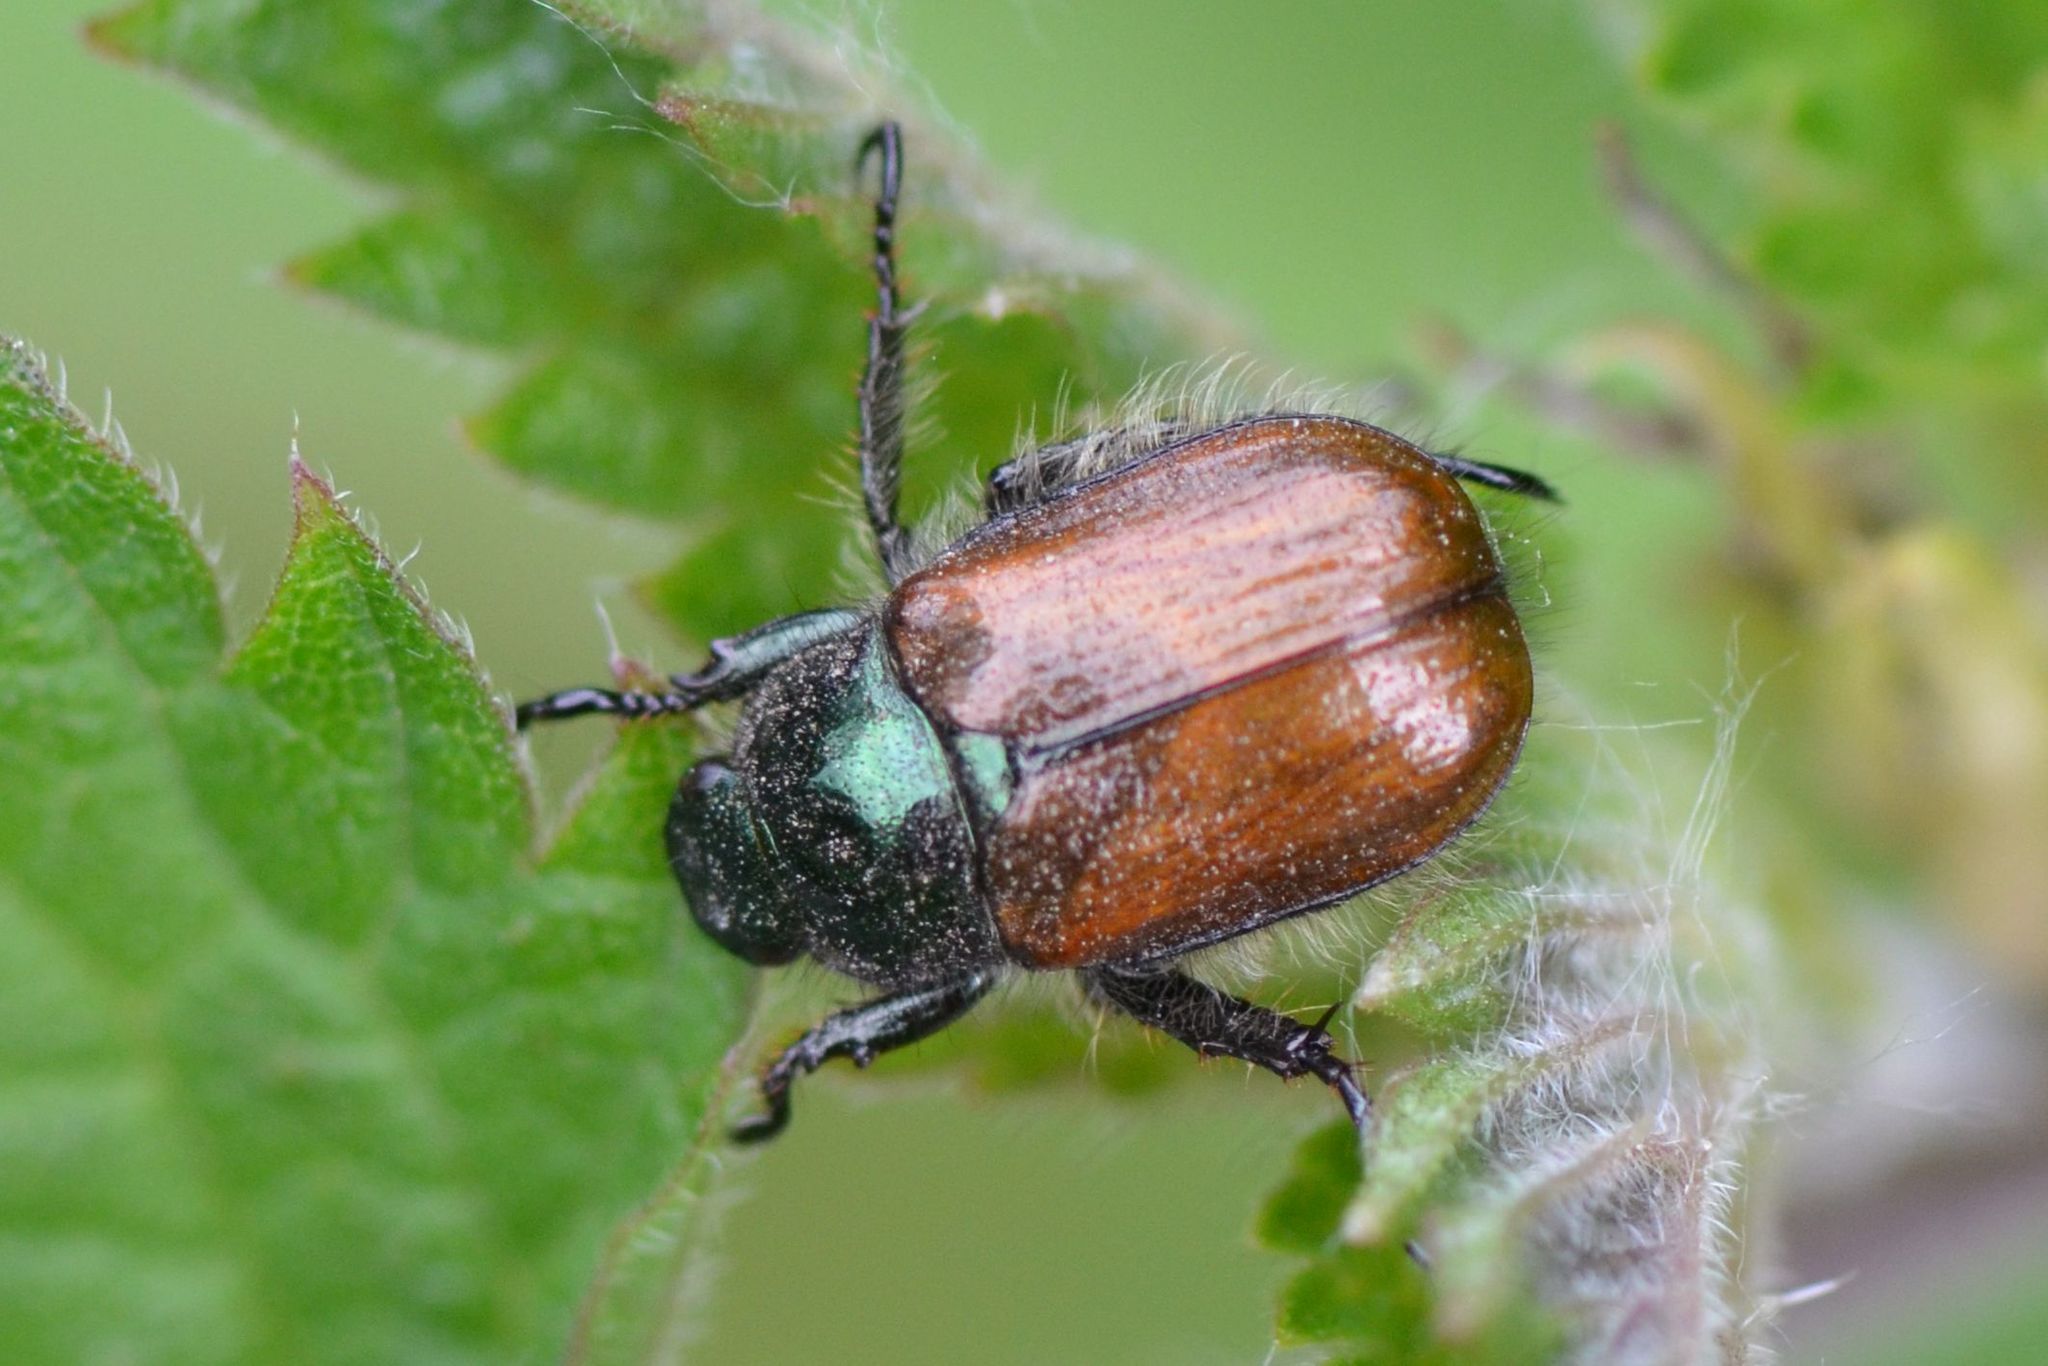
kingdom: Animalia
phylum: Arthropoda
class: Insecta
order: Coleoptera
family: Scarabaeidae
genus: Phyllopertha
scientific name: Phyllopertha horticola
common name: Garden chafer
